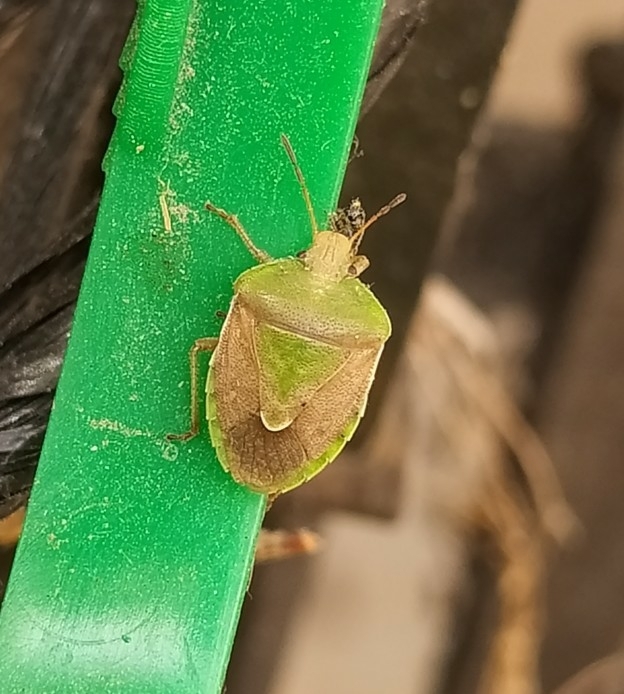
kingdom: Animalia
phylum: Arthropoda
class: Insecta
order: Hemiptera
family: Pentatomidae
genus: Acledra
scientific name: Acledra bonariensis
